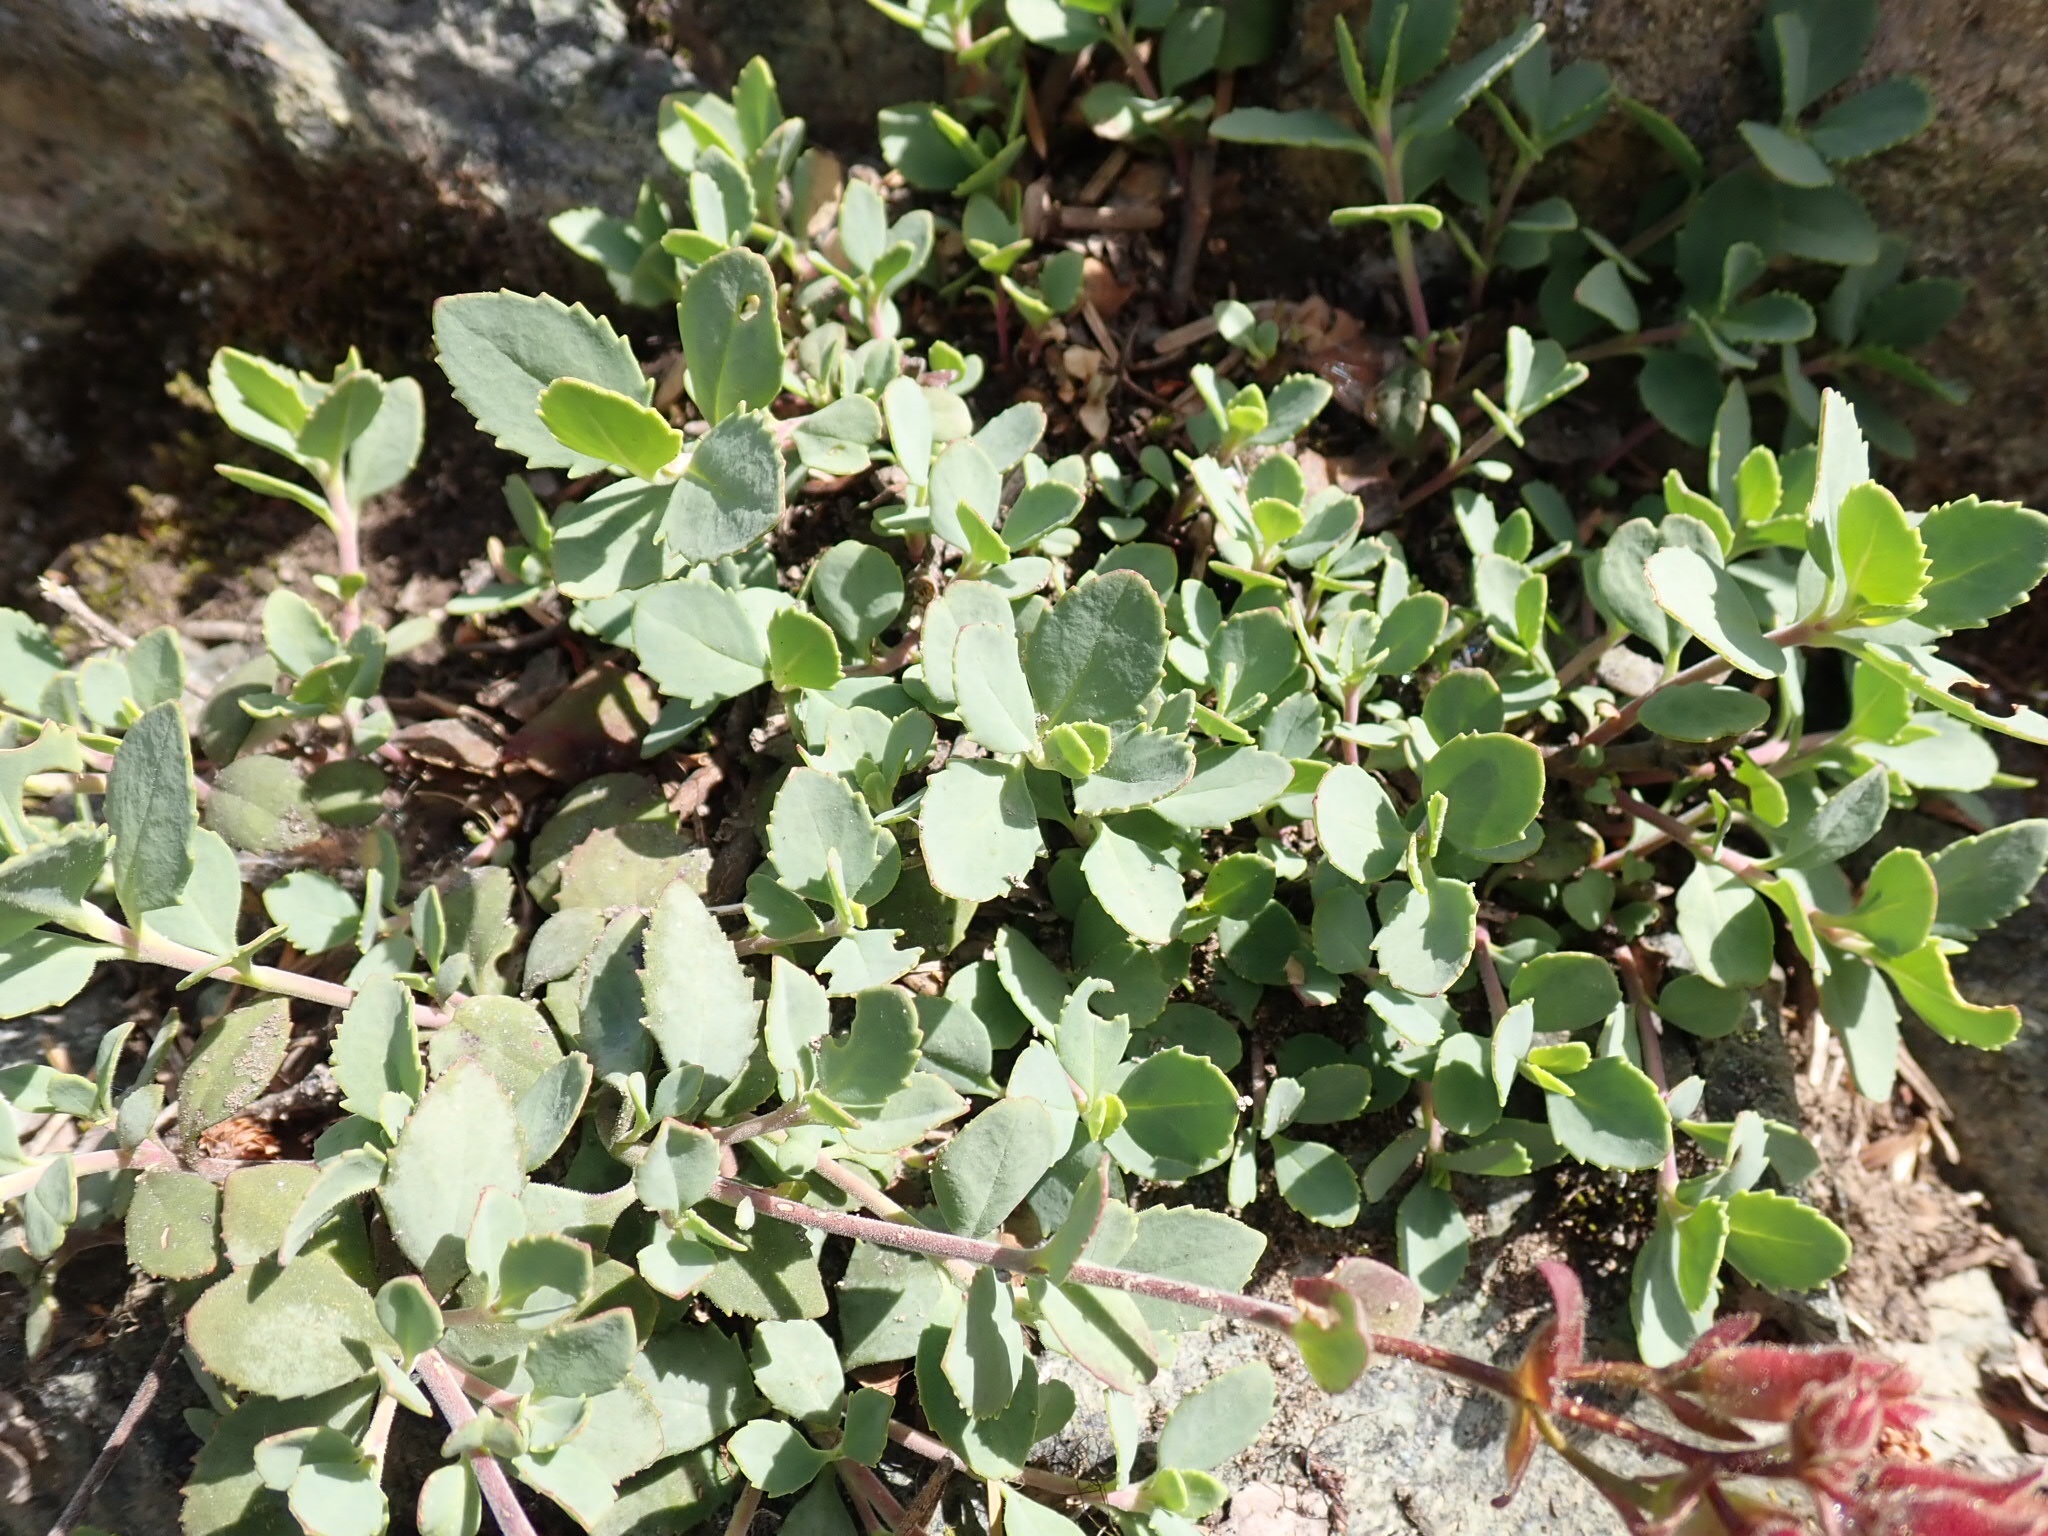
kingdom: Plantae
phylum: Tracheophyta
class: Magnoliopsida
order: Lamiales
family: Plantaginaceae
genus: Penstemon
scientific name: Penstemon rupicola
